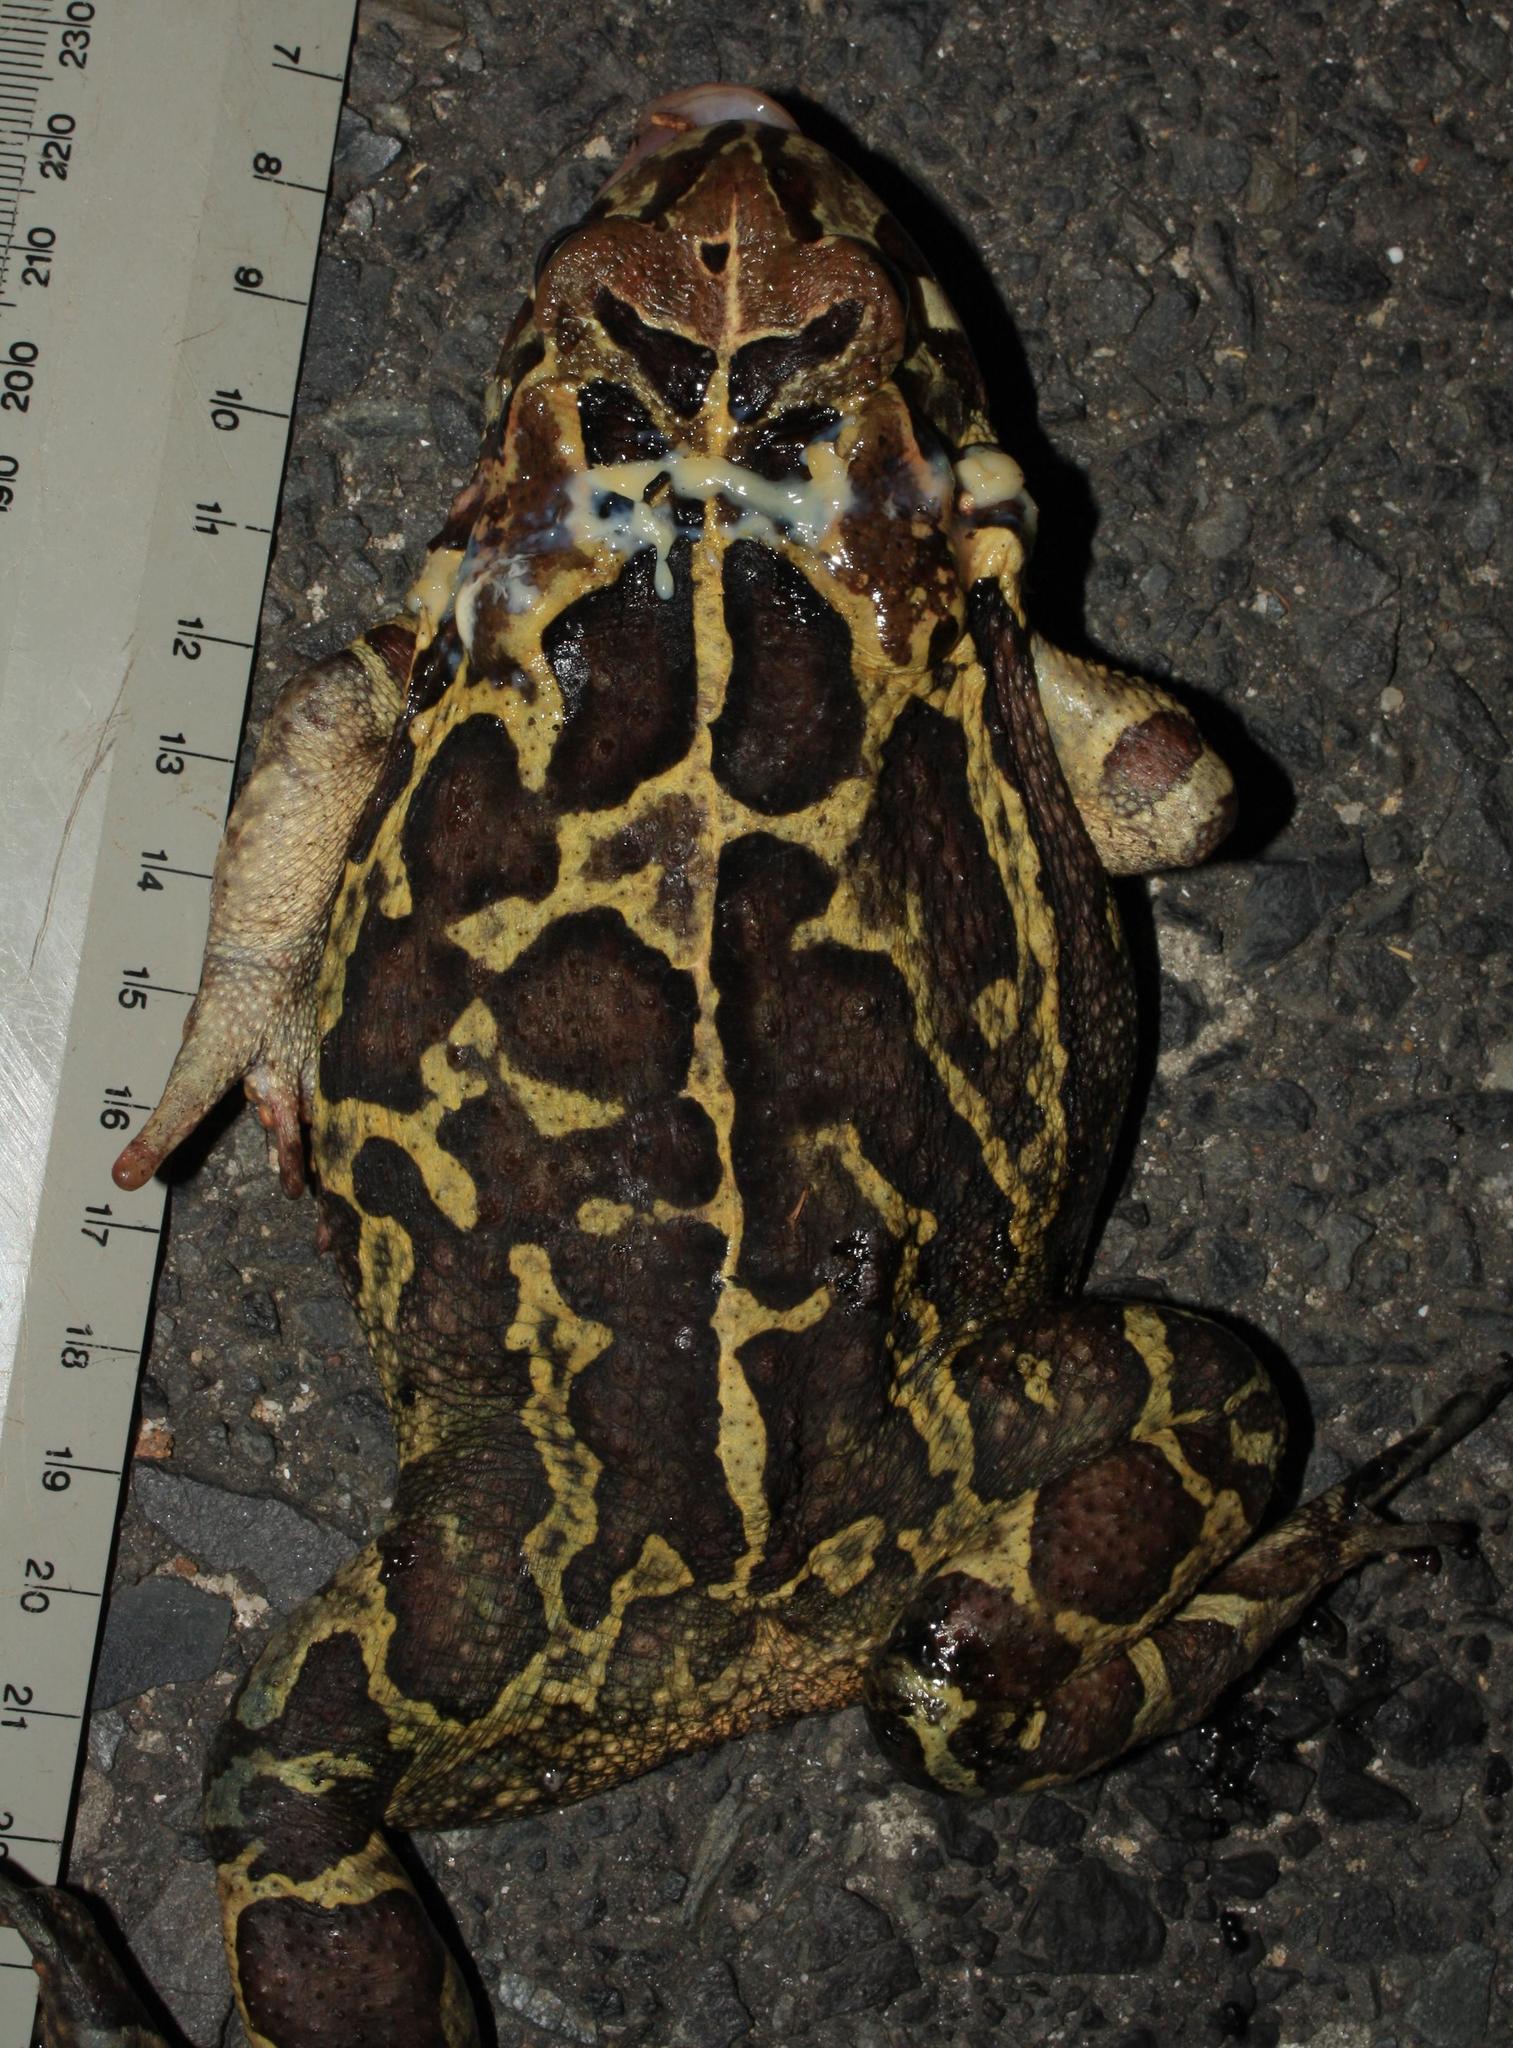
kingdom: Animalia
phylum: Chordata
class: Amphibia
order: Anura
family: Bufonidae
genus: Sclerophrys
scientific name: Sclerophrys pantherina
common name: Panther toad
